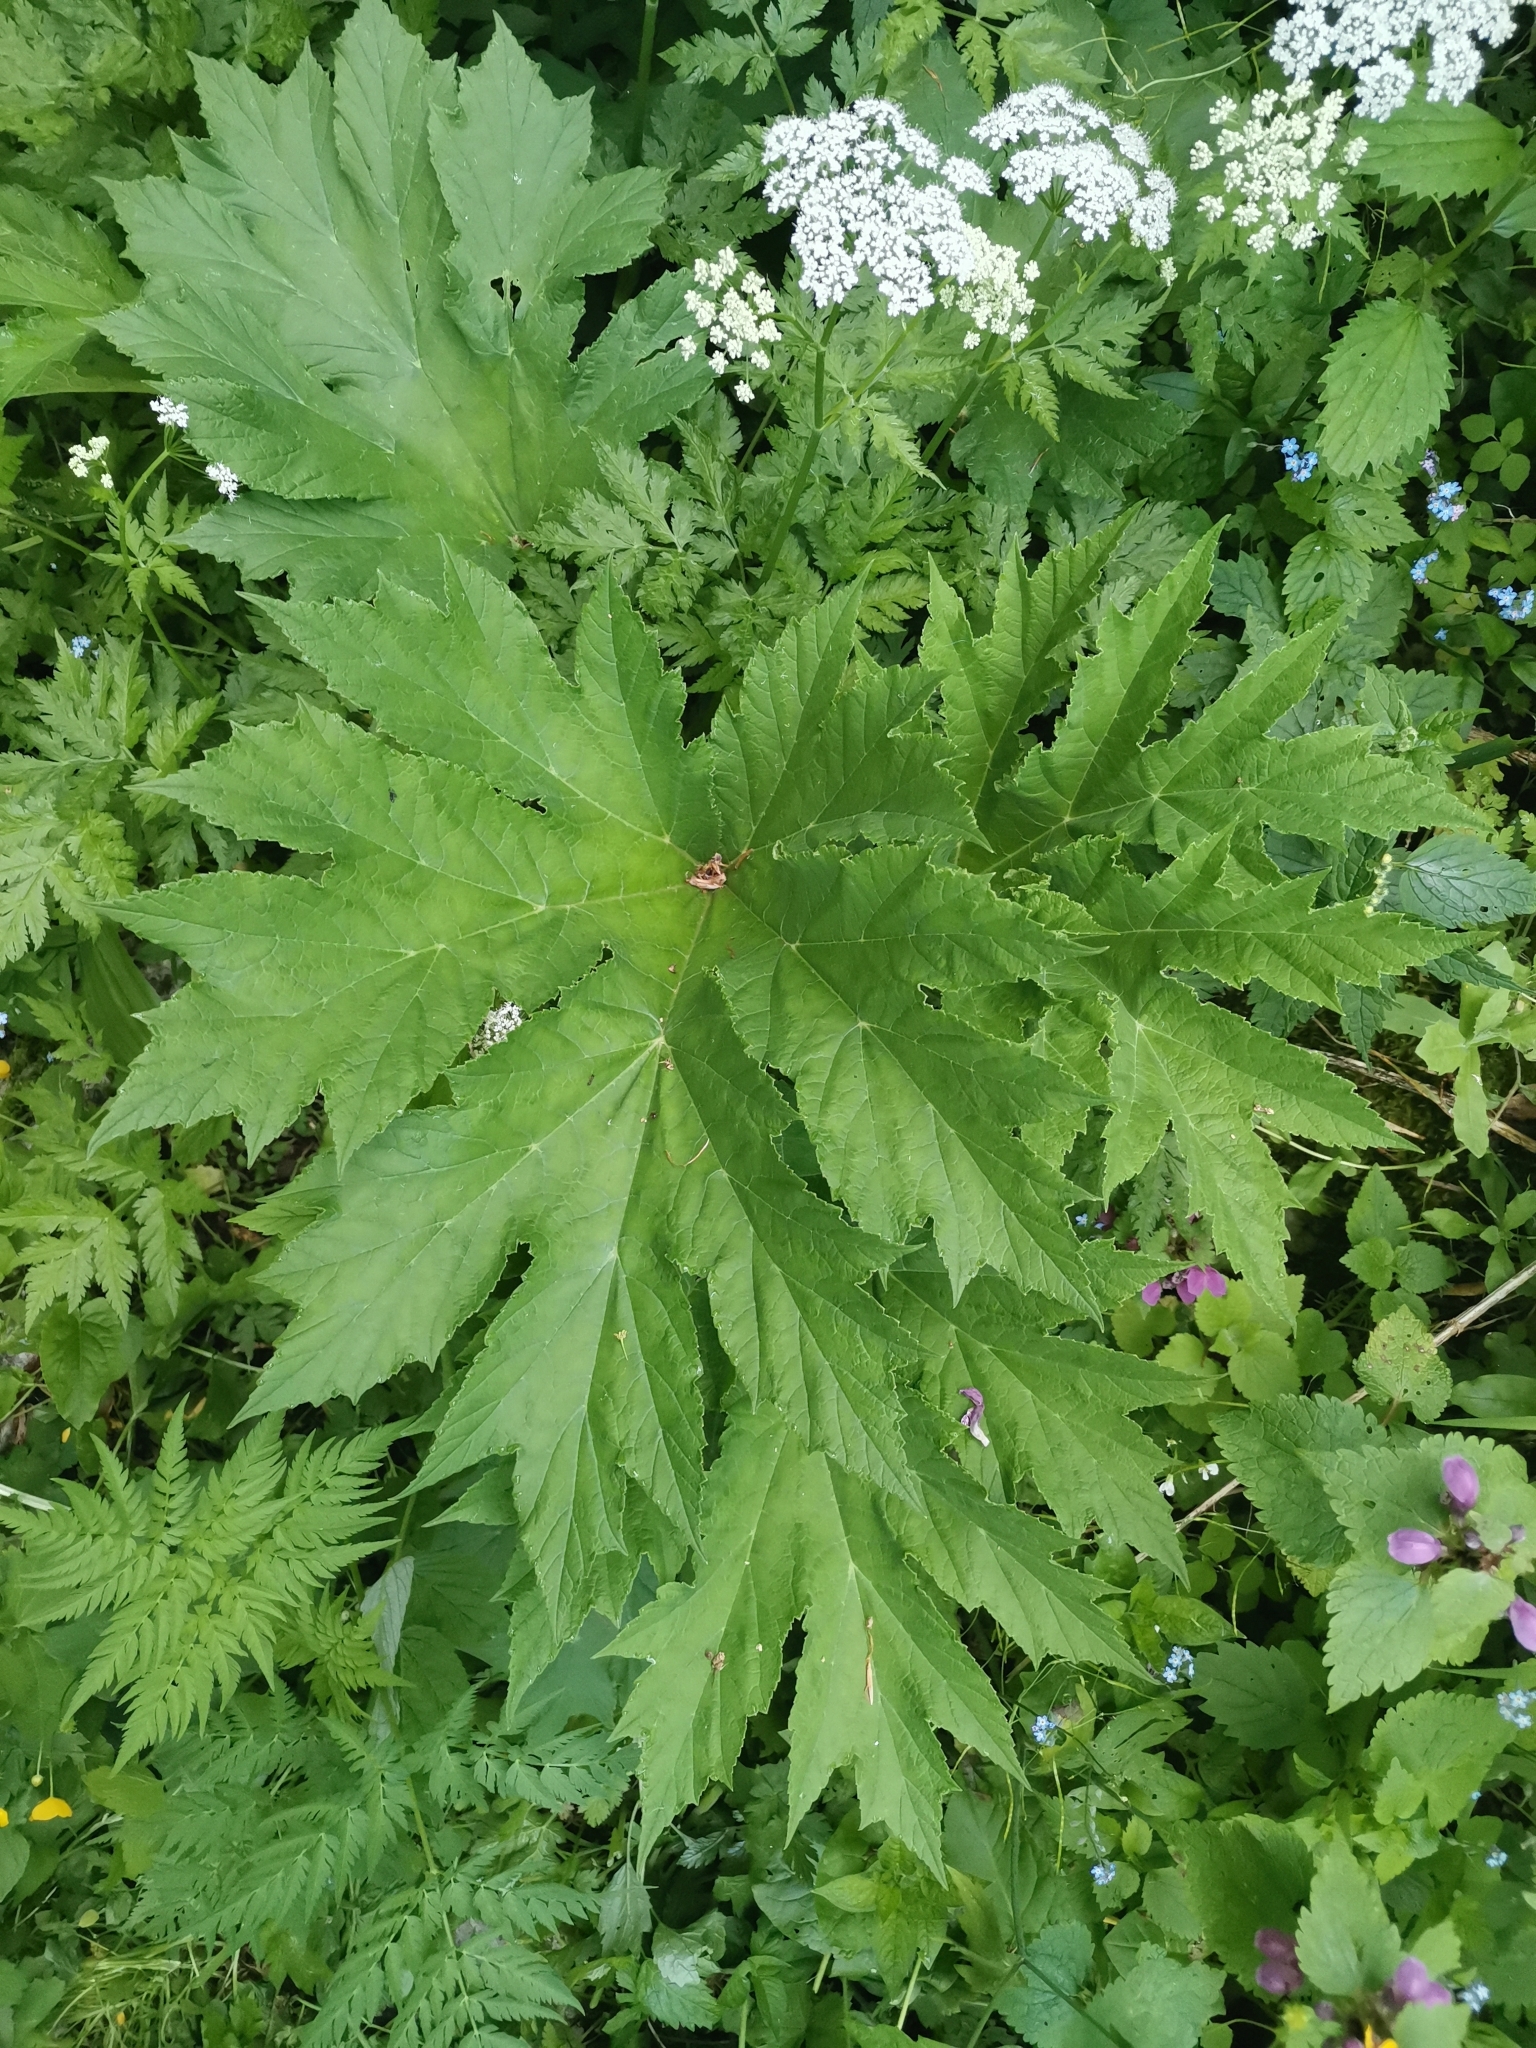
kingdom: Plantae
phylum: Tracheophyta
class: Magnoliopsida
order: Apiales
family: Apiaceae
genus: Heracleum
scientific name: Heracleum sphondylium
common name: Hogweed
